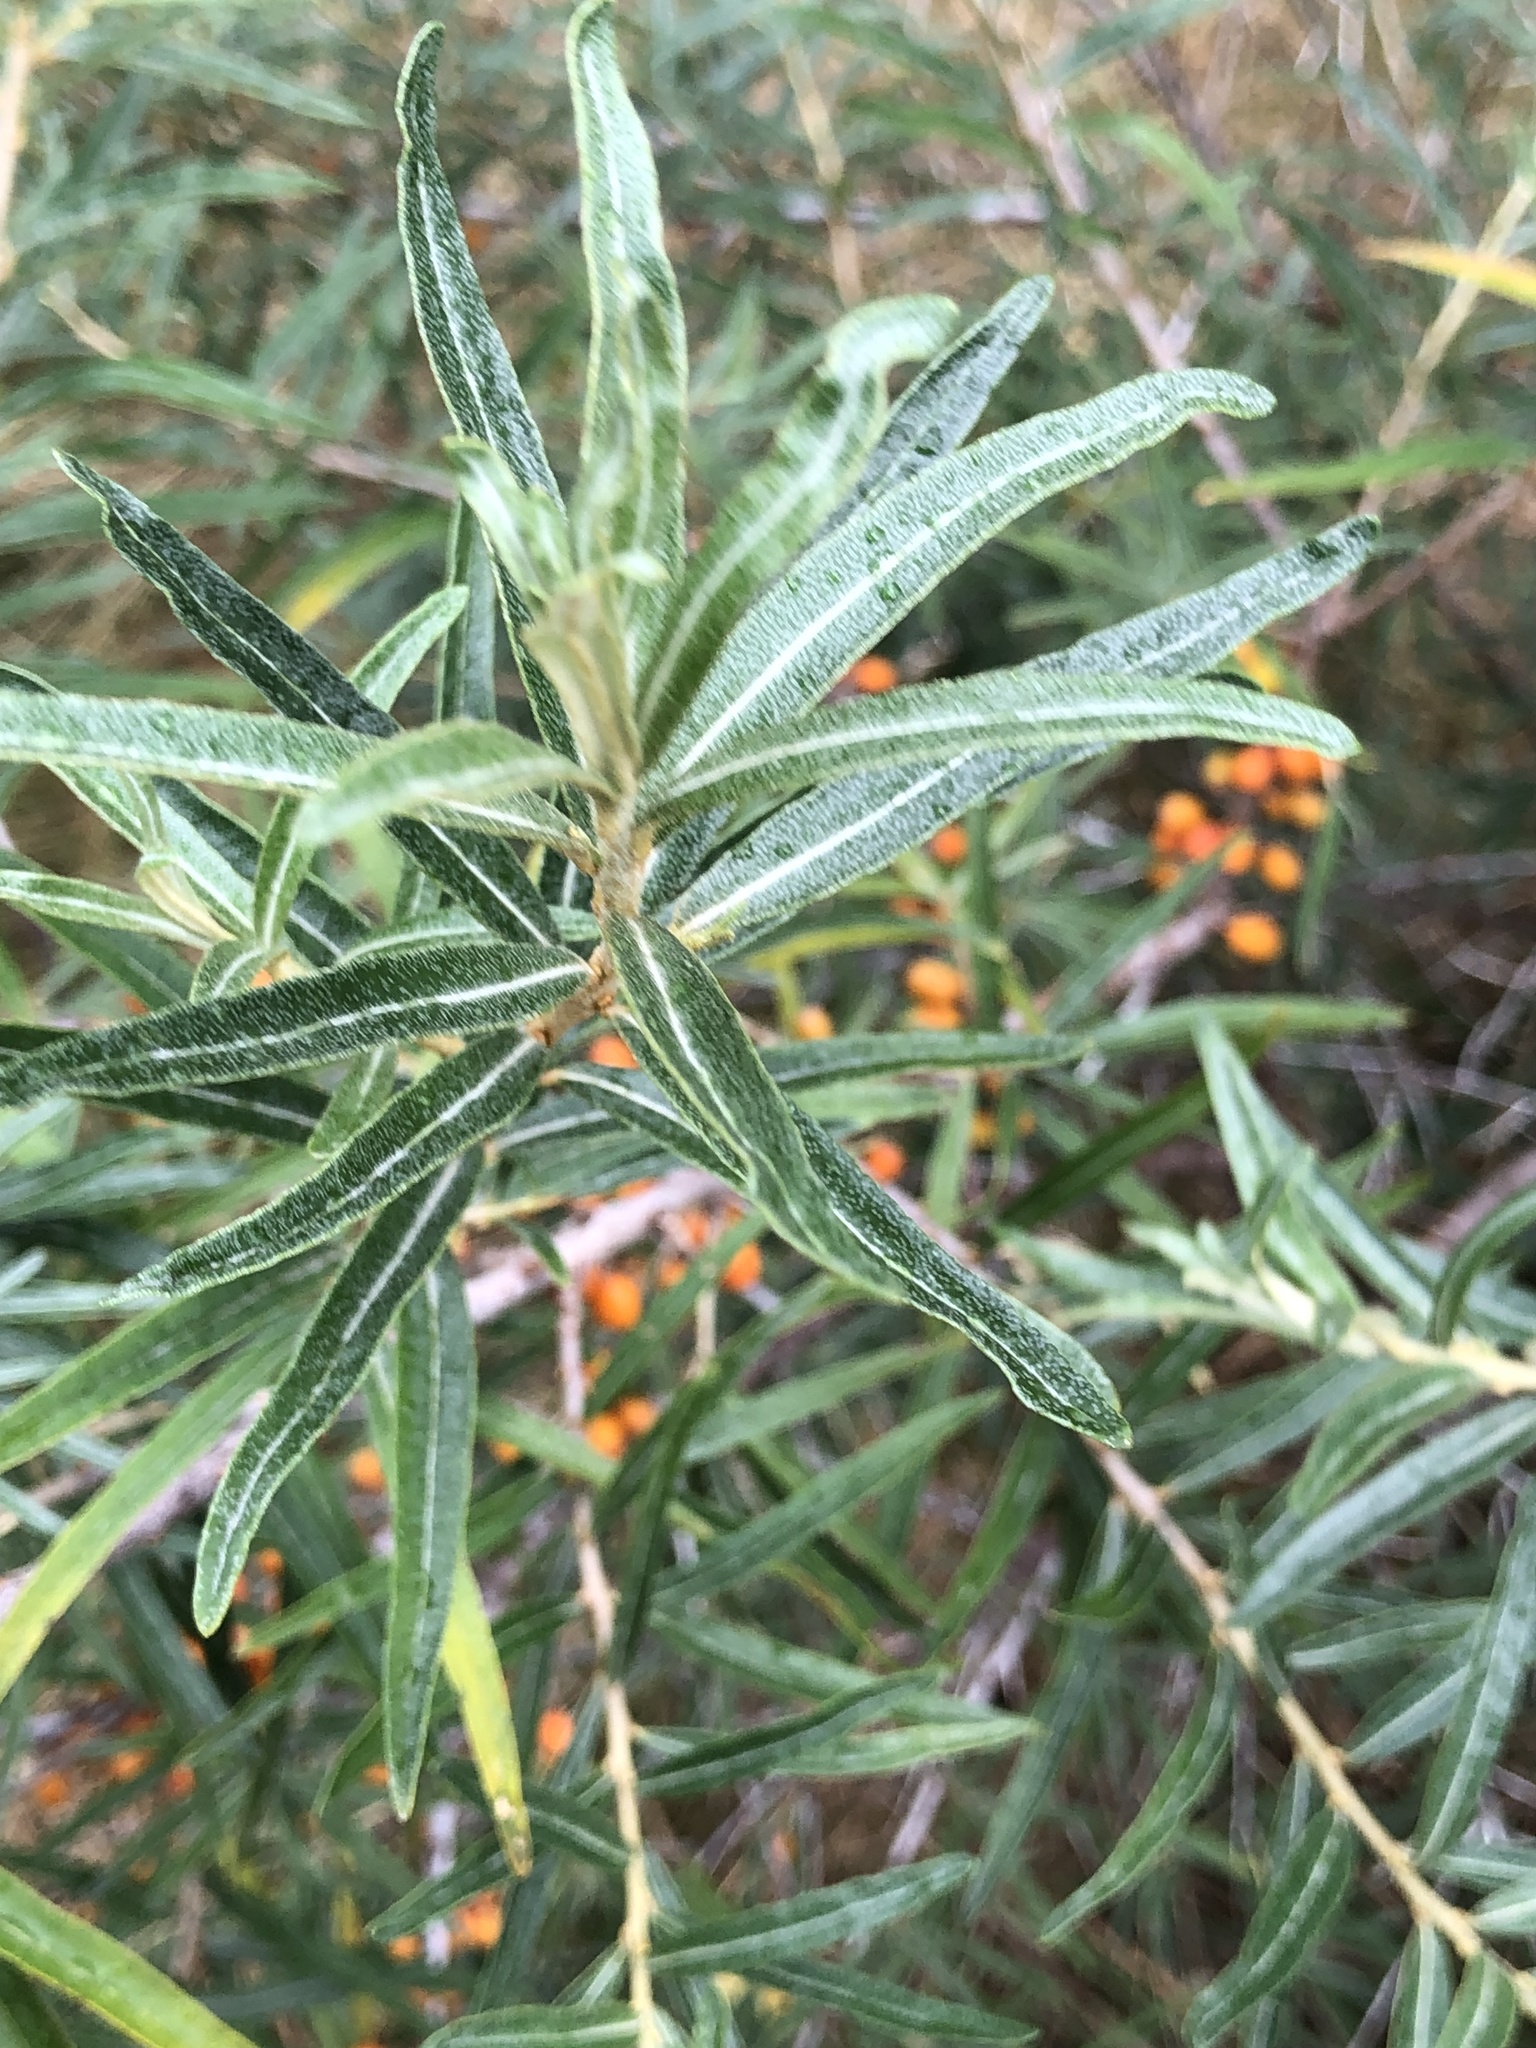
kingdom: Plantae
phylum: Tracheophyta
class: Magnoliopsida
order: Rosales
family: Elaeagnaceae
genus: Hippophae
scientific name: Hippophae rhamnoides
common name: Sea-buckthorn
